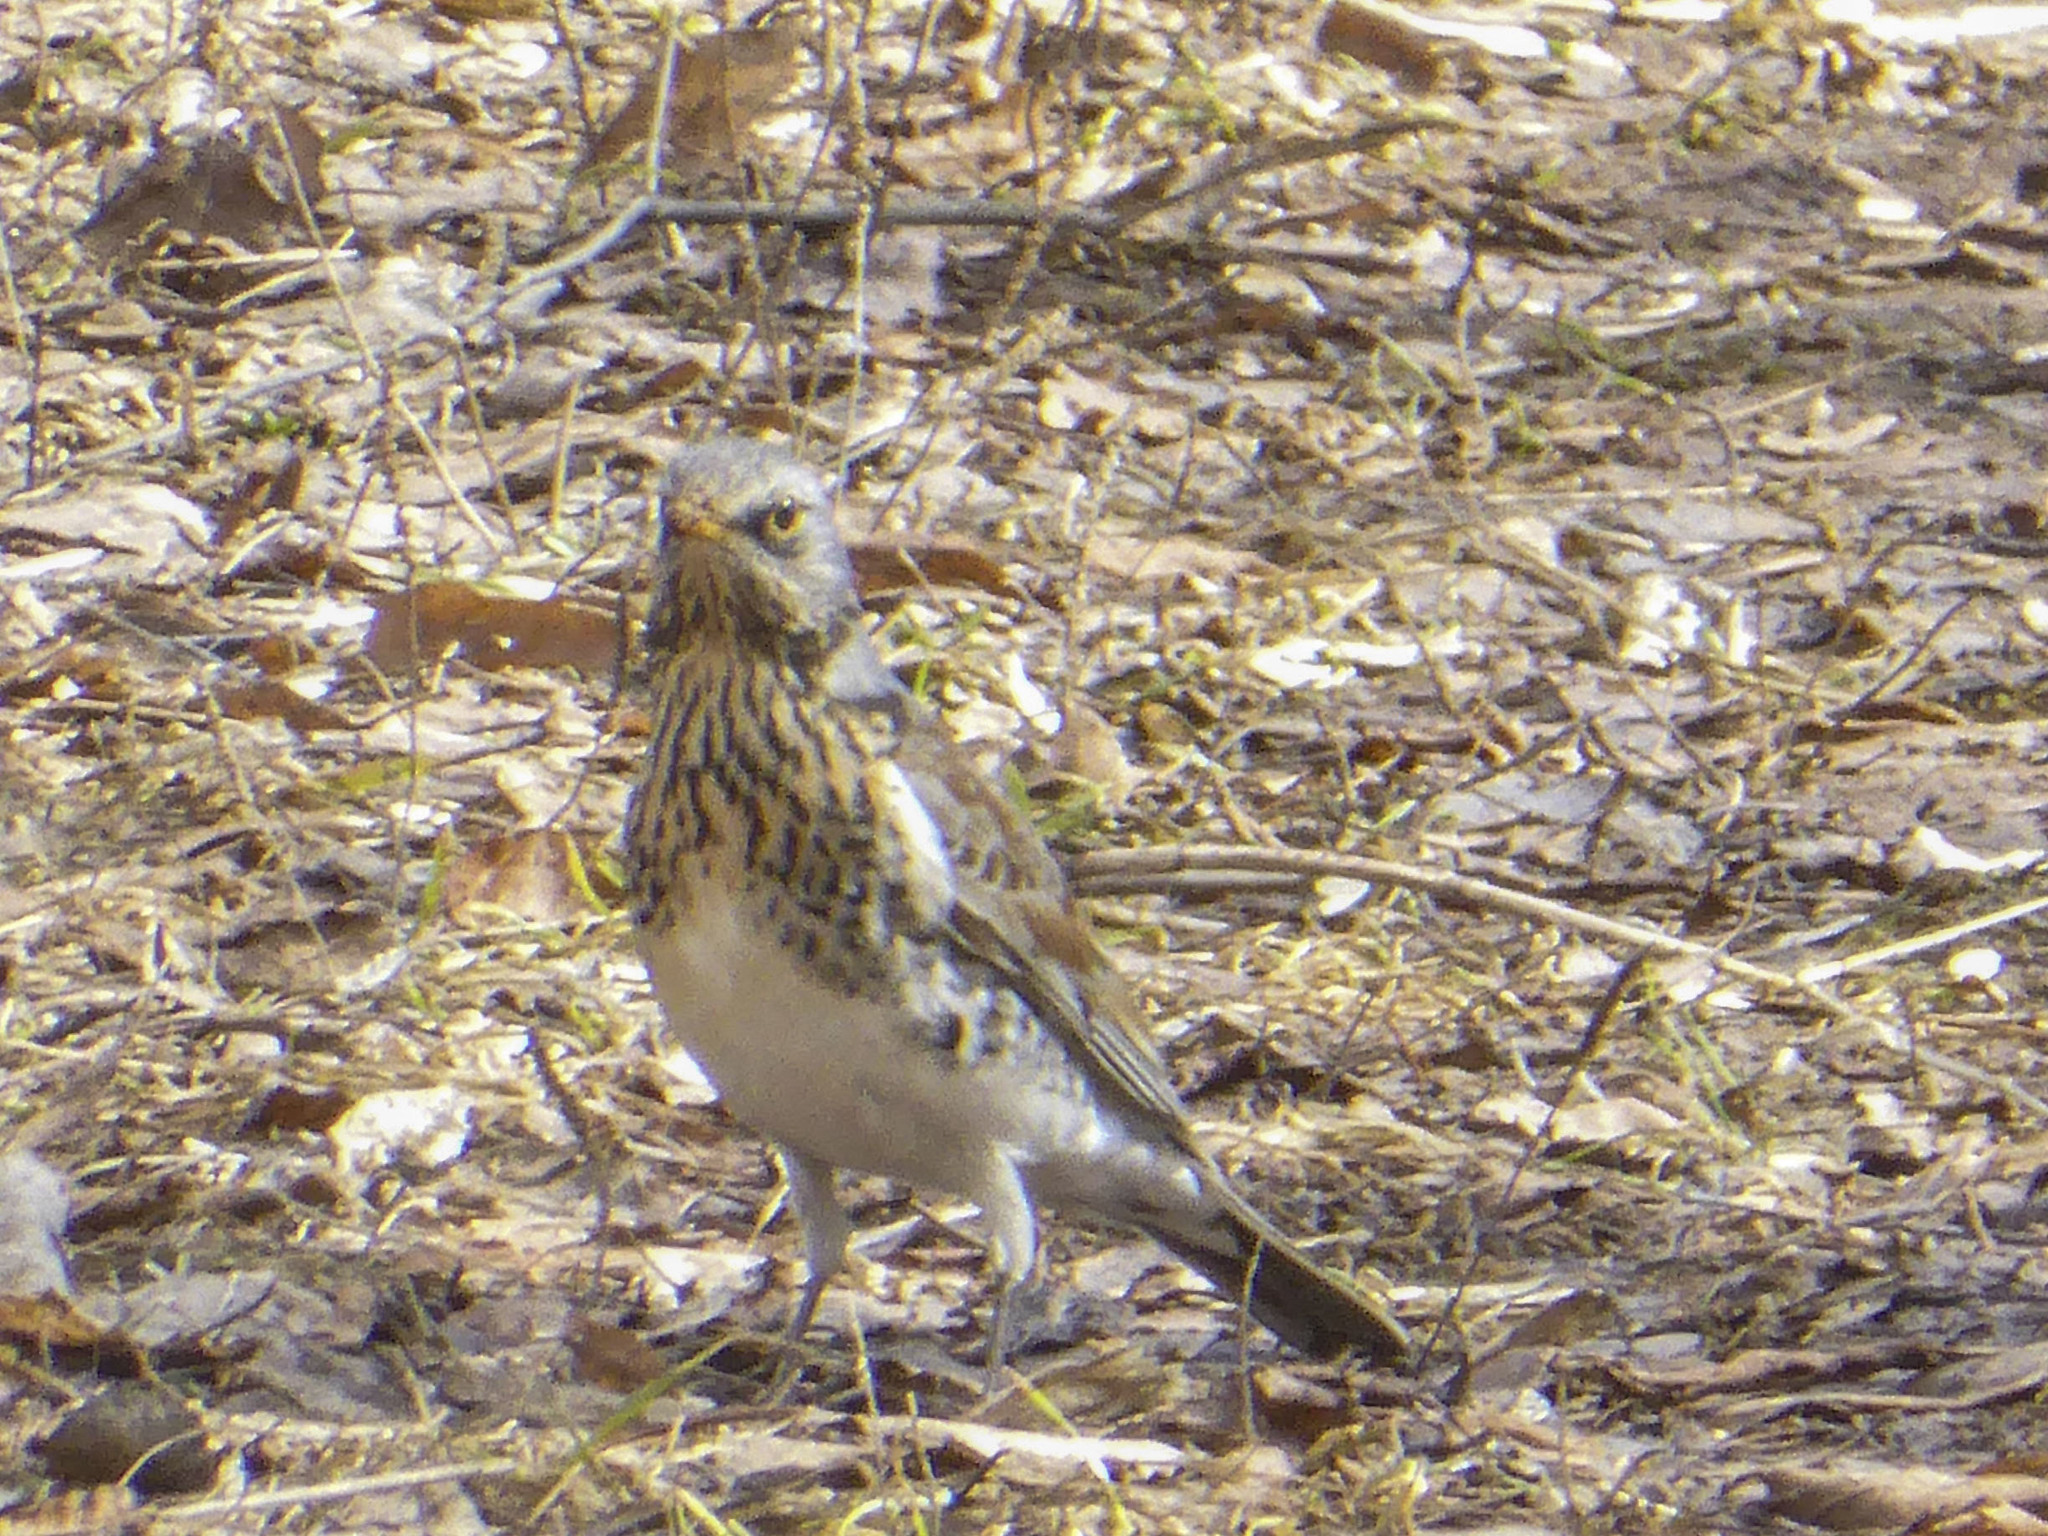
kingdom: Animalia
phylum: Chordata
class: Aves
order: Passeriformes
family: Turdidae
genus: Turdus
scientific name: Turdus pilaris
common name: Fieldfare
